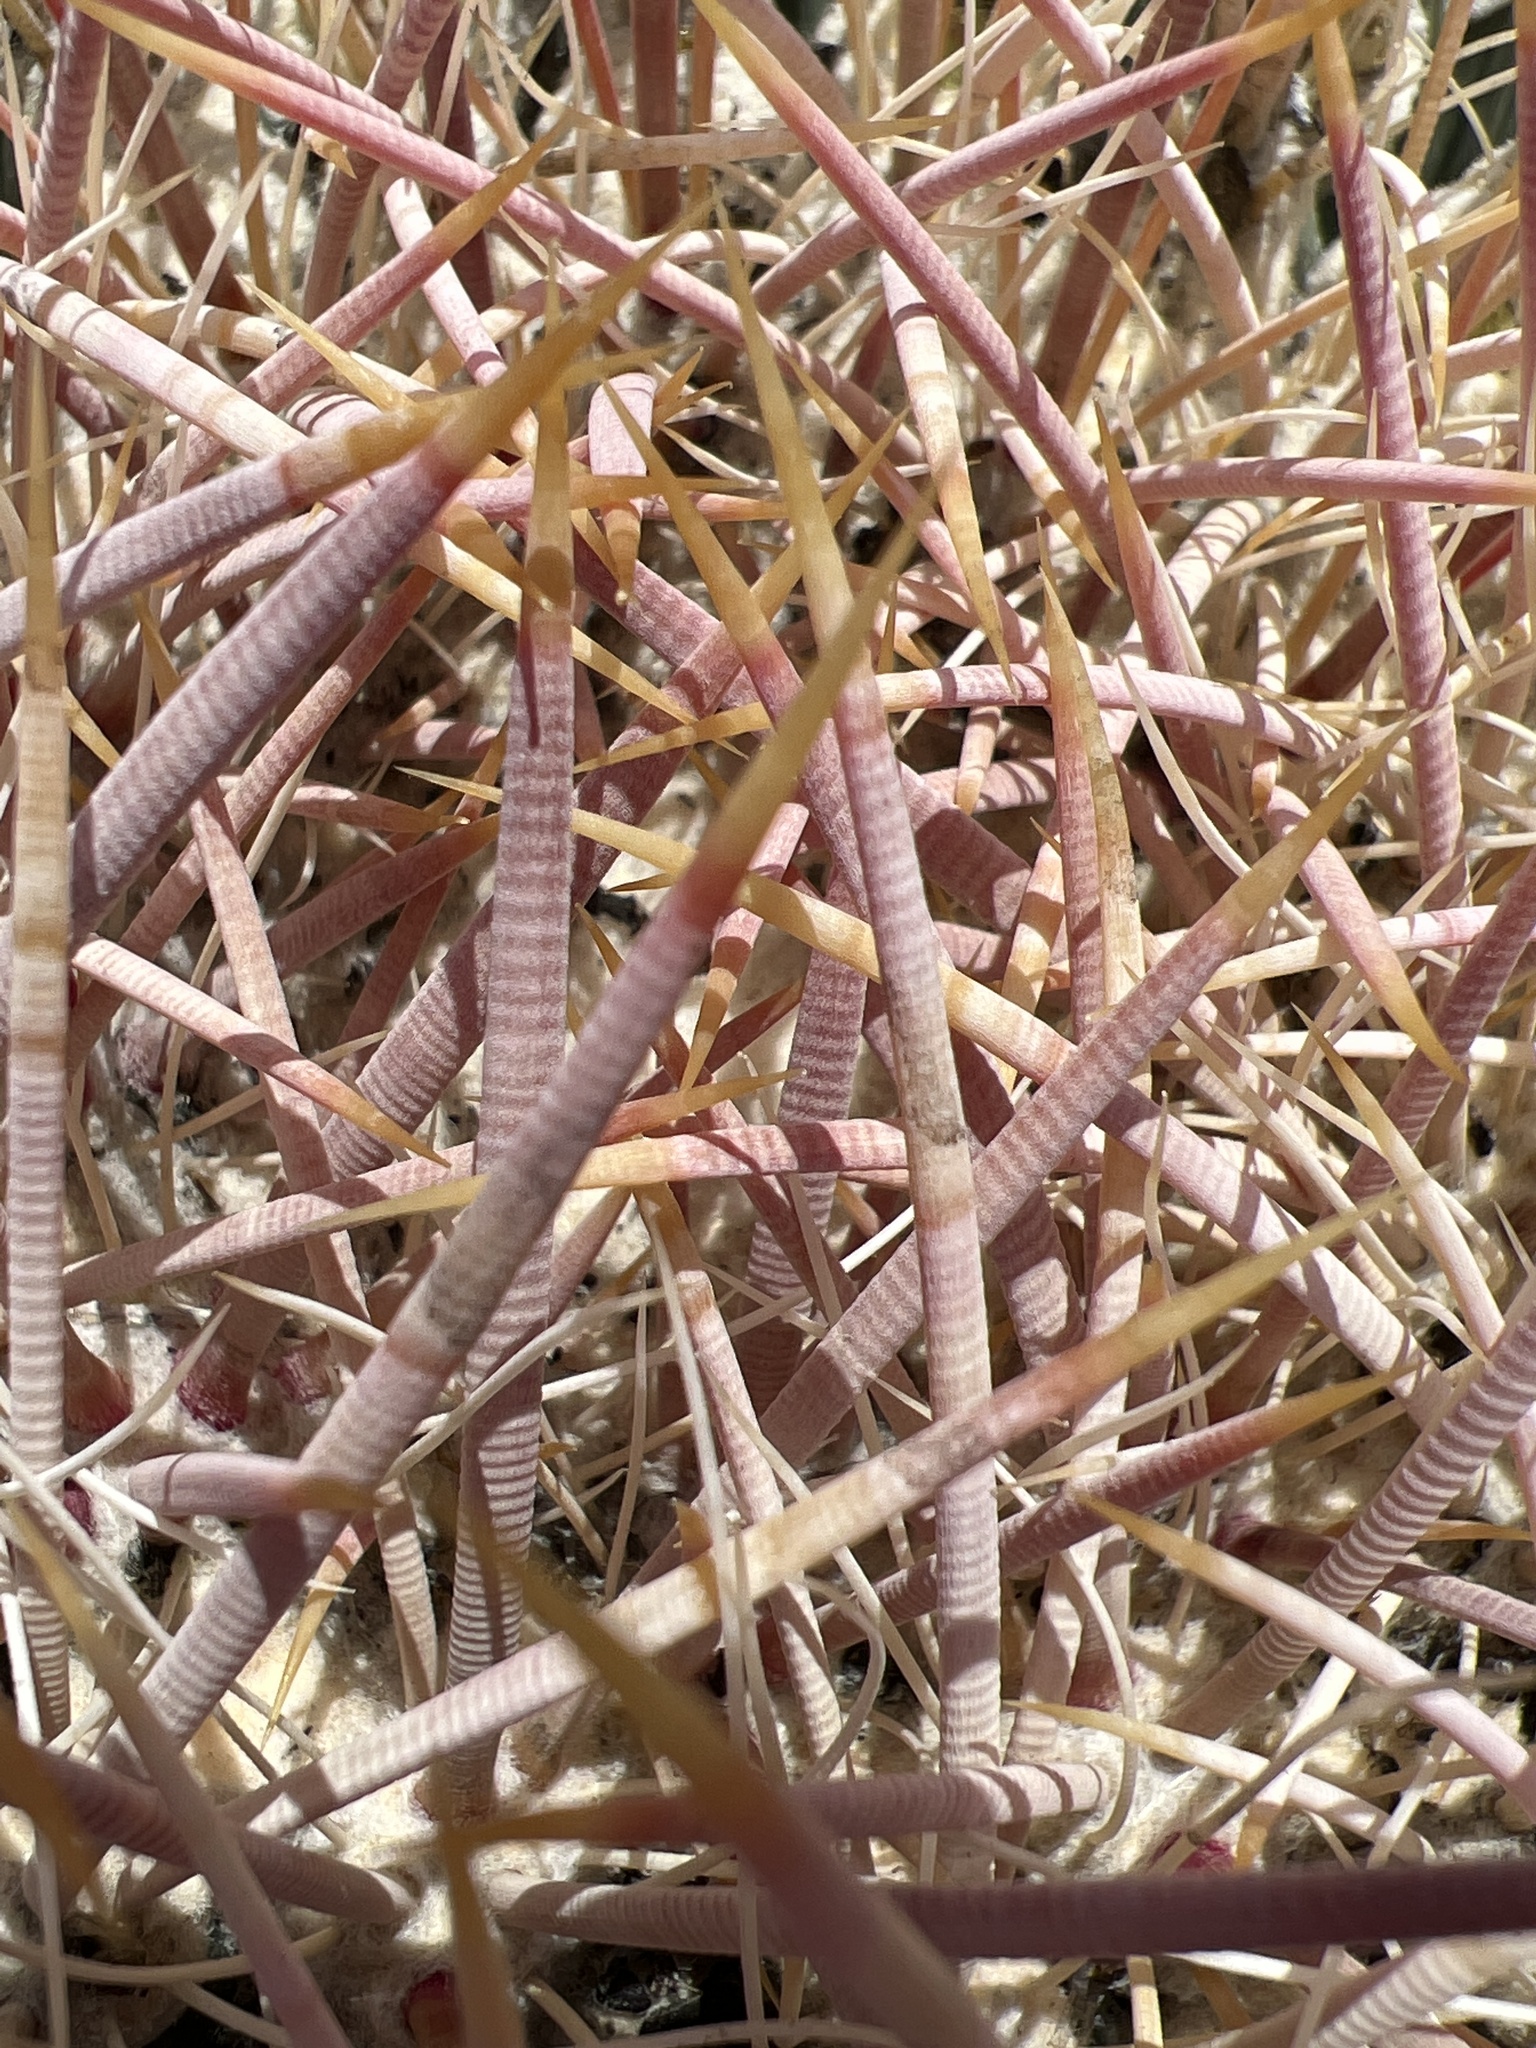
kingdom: Plantae
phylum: Tracheophyta
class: Magnoliopsida
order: Caryophyllales
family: Cactaceae
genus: Ferocactus
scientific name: Ferocactus cylindraceus
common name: California barrel cactus
